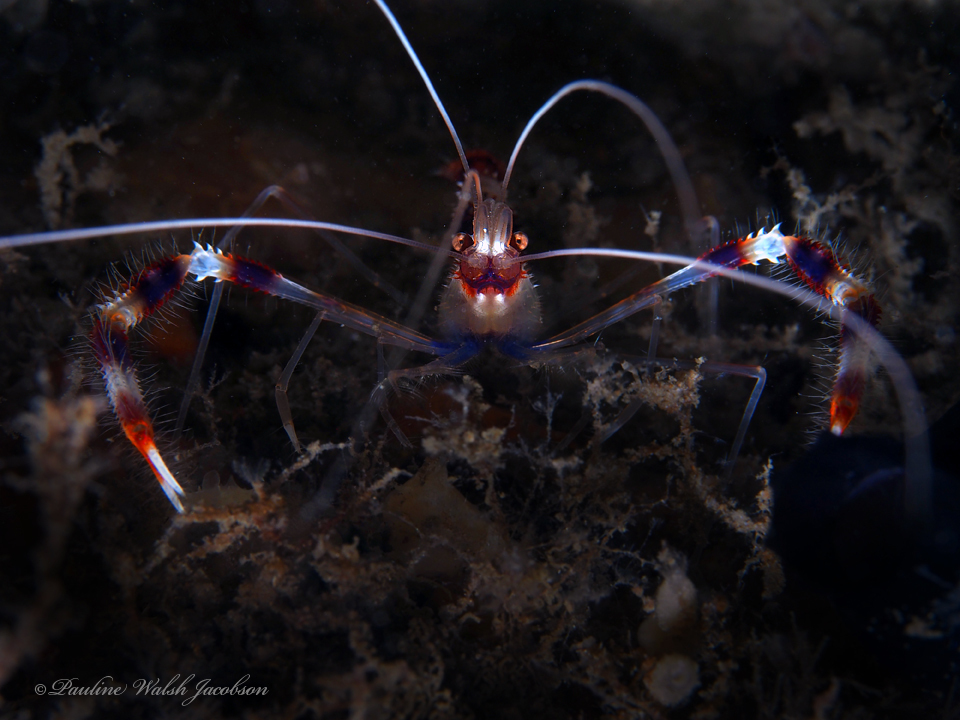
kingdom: Animalia
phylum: Arthropoda
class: Malacostraca
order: Decapoda
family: Stenopodidae
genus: Stenopus
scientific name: Stenopus hispidus
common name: Banded coral shrimp
